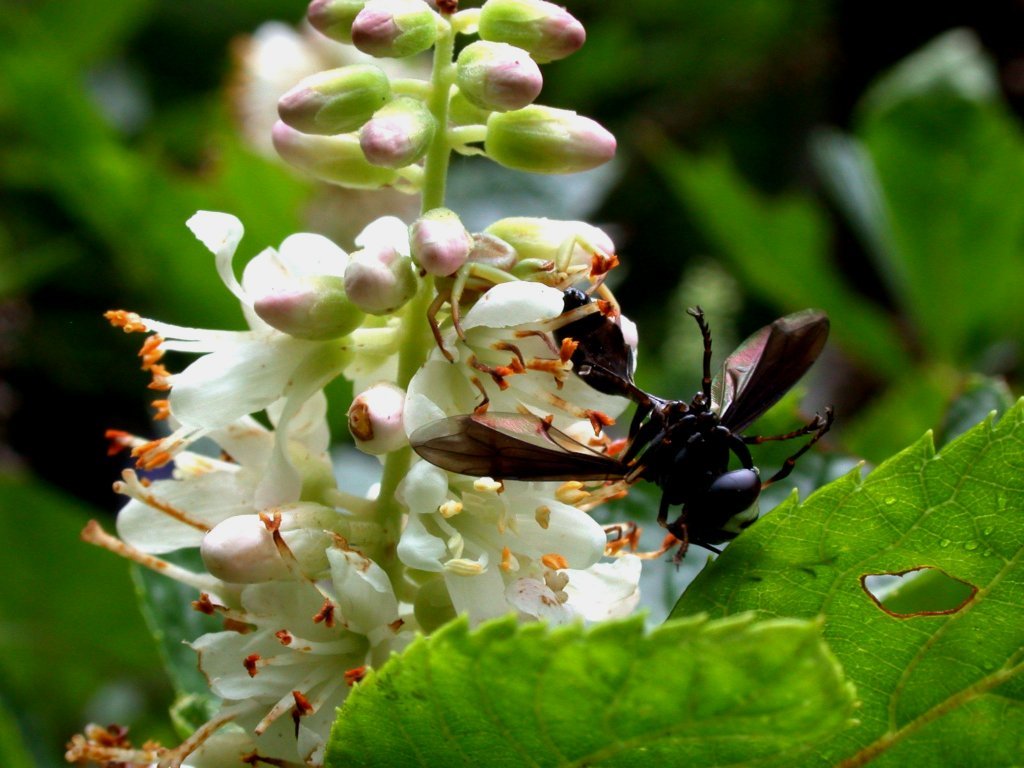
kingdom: Animalia
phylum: Arthropoda
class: Insecta
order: Diptera
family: Conopidae
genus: Physocephala
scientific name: Physocephala
